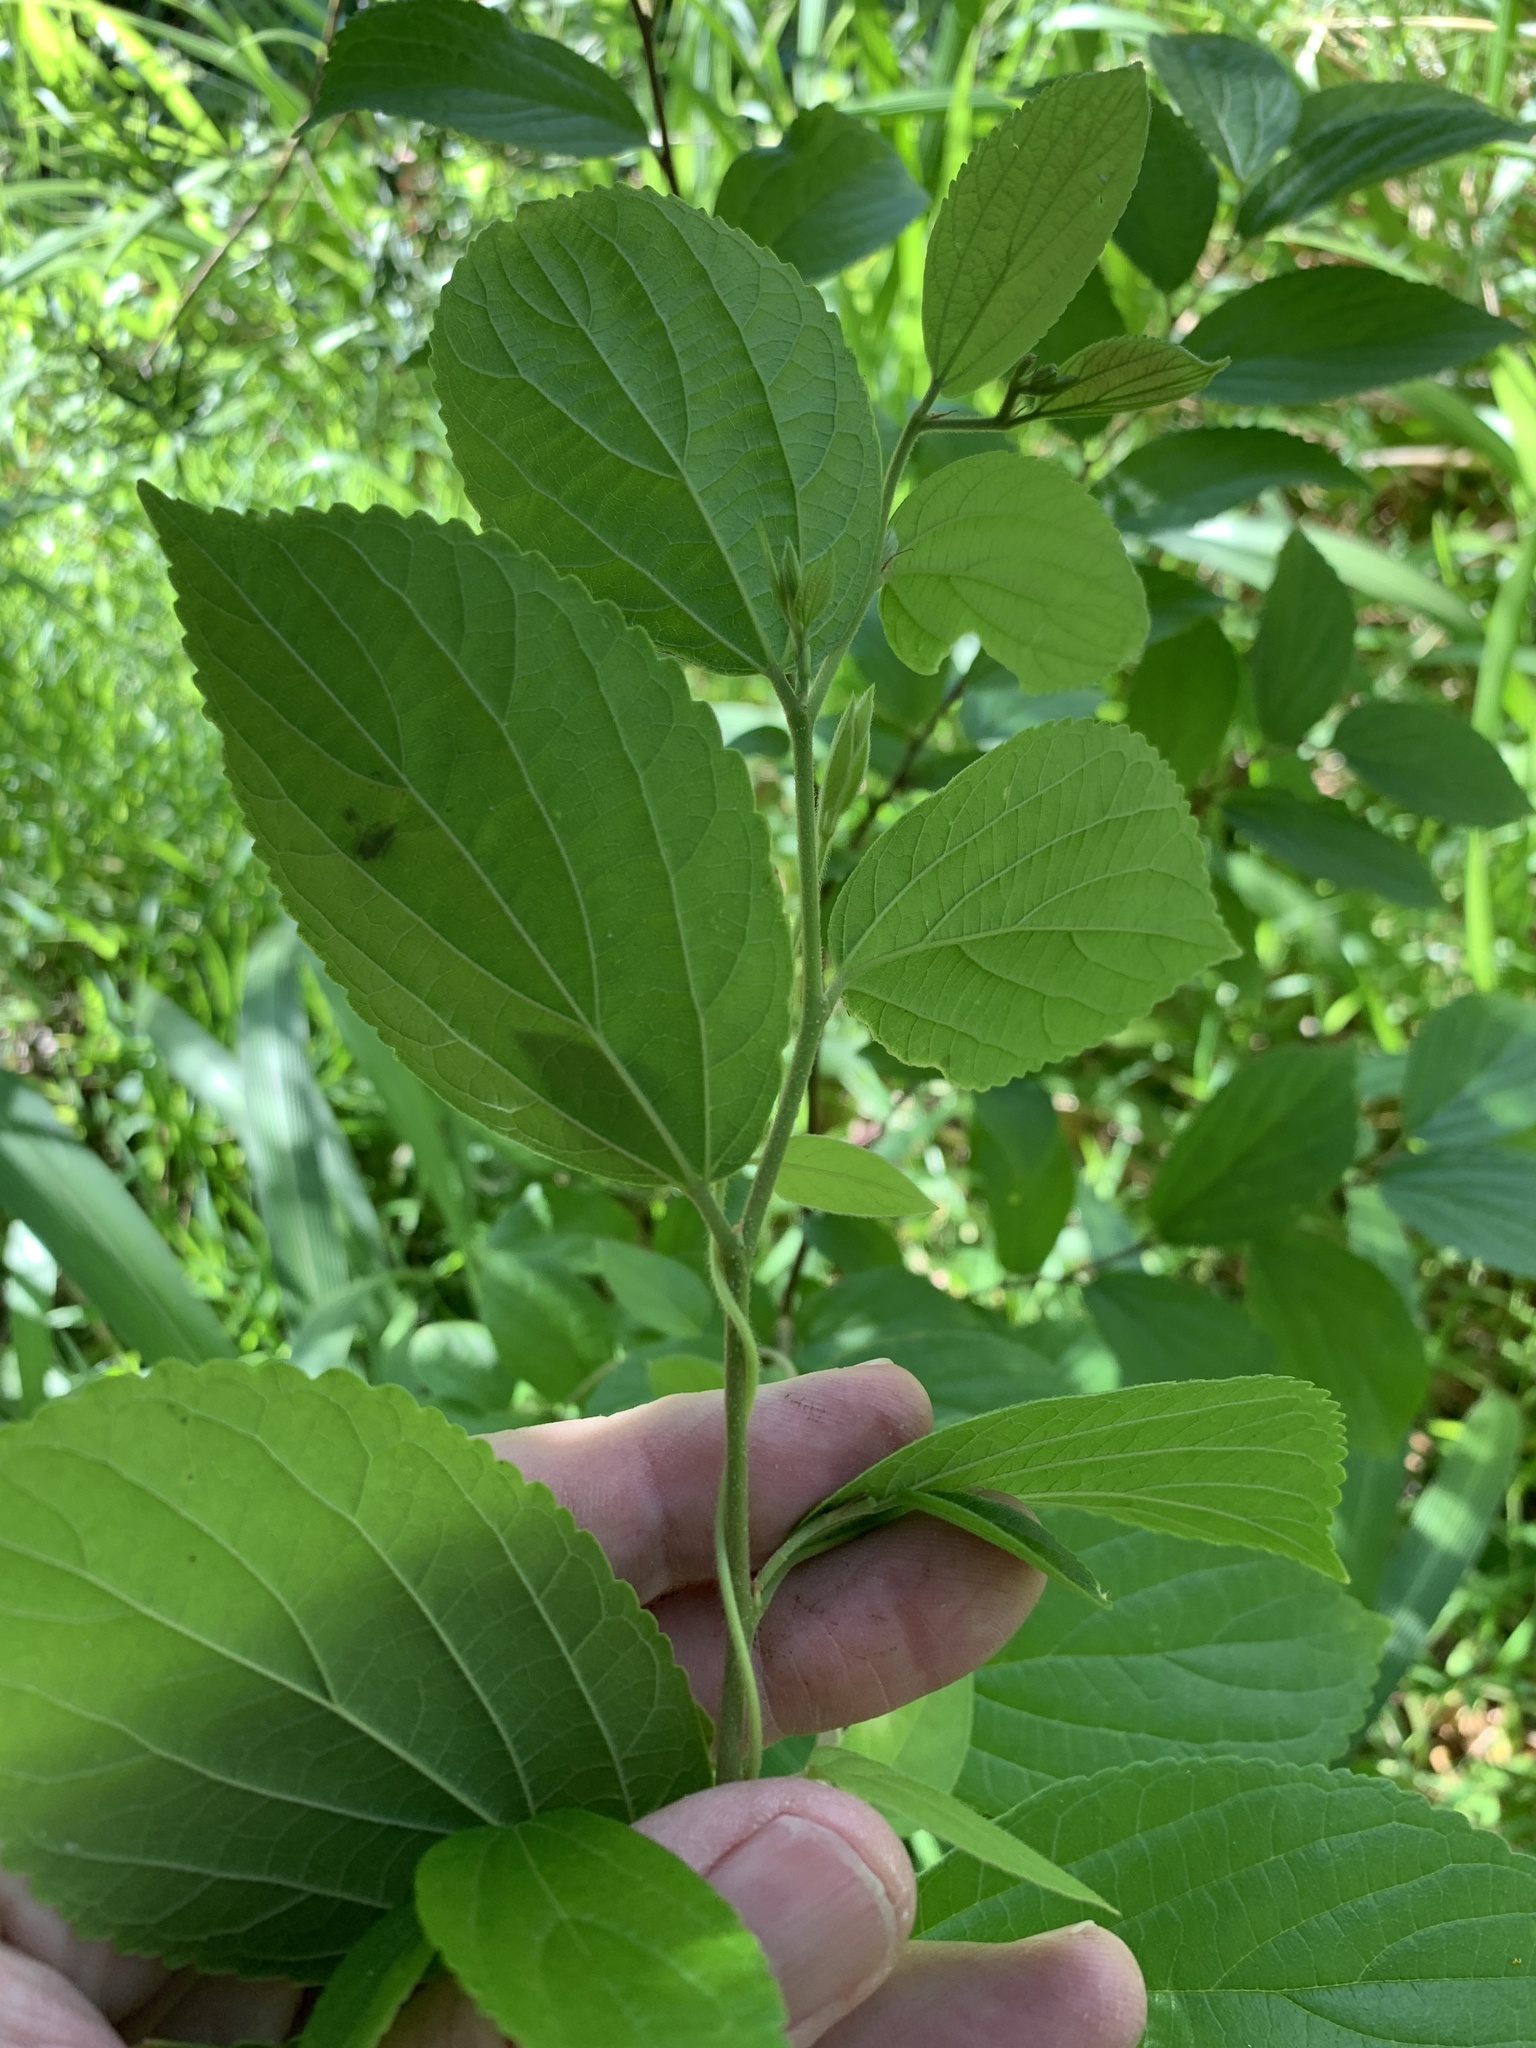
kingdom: Plantae
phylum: Tracheophyta
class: Magnoliopsida
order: Rosales
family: Cannabaceae
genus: Celtis
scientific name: Celtis sinensis
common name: Chinese hackberry
